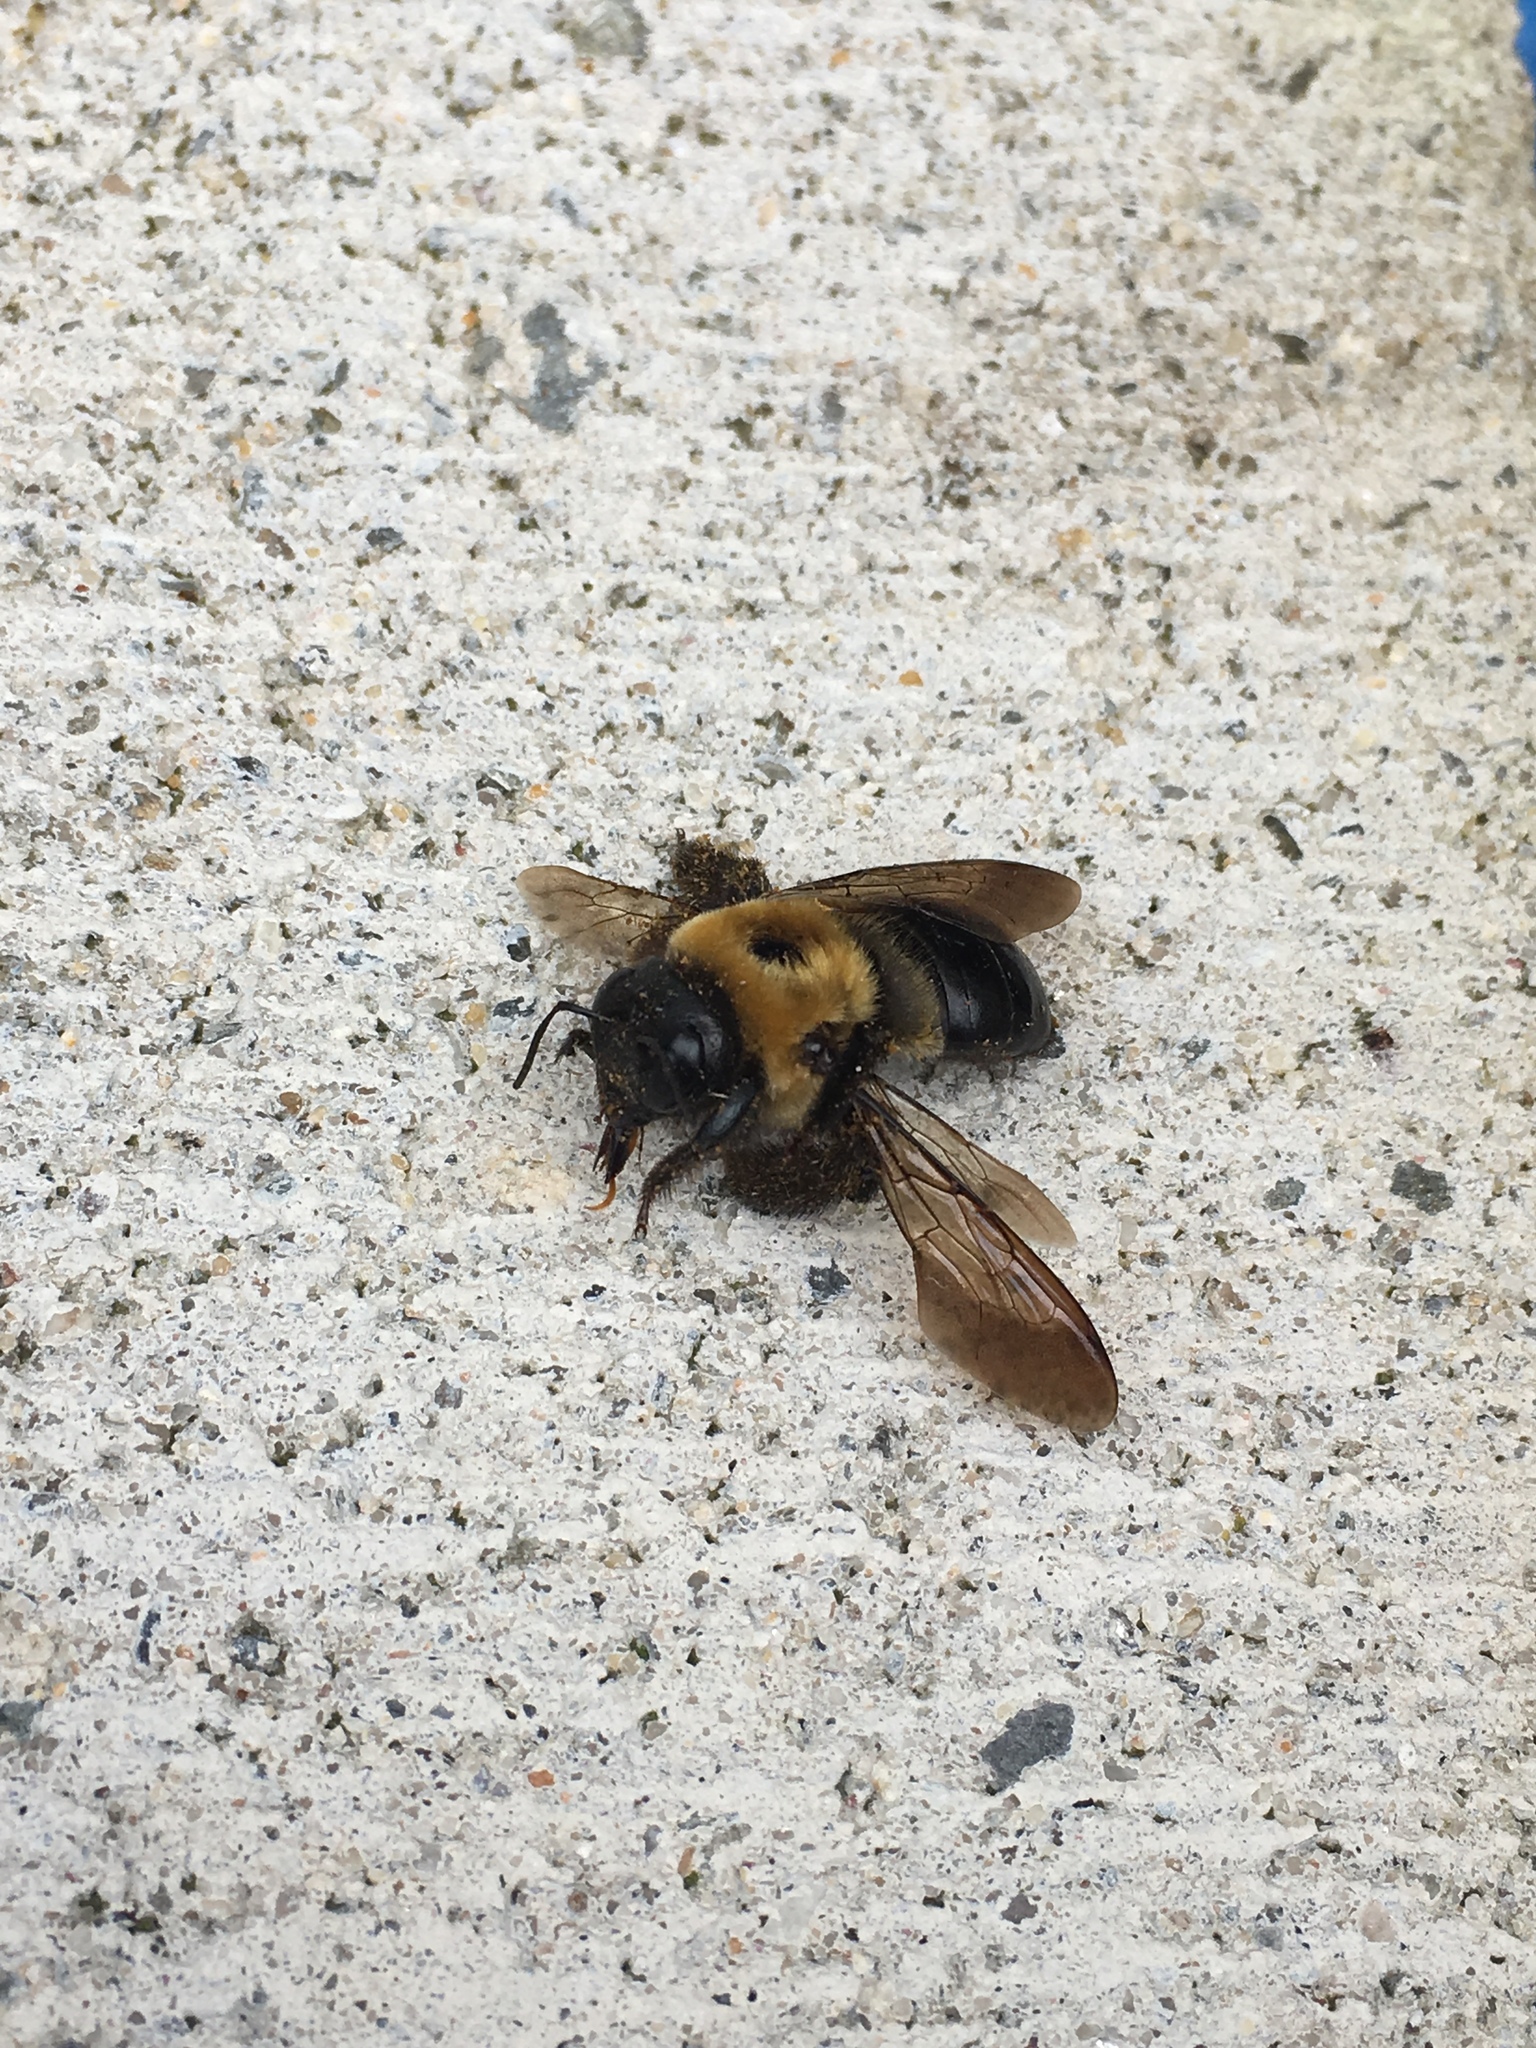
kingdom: Animalia
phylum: Arthropoda
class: Insecta
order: Hymenoptera
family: Apidae
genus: Xylocopa
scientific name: Xylocopa virginica
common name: Carpenter bee
